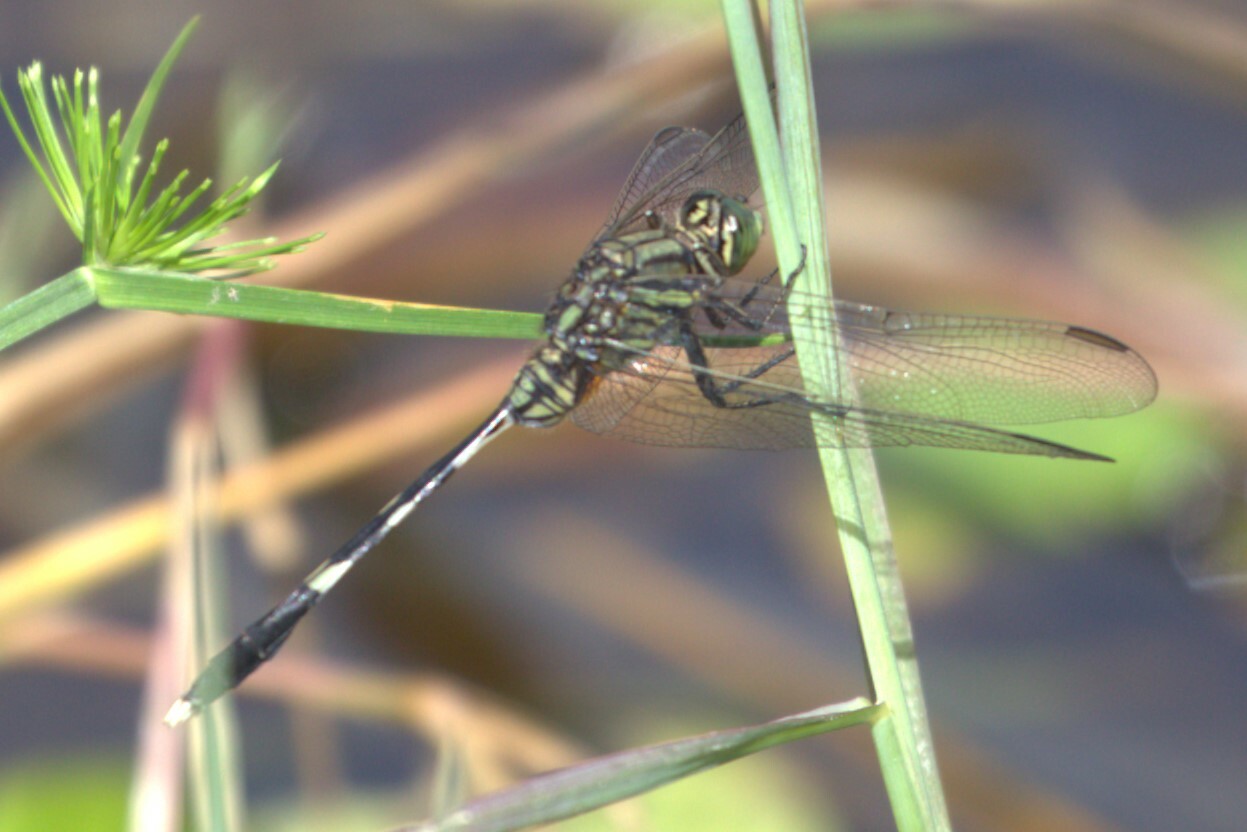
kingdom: Animalia
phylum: Arthropoda
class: Insecta
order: Odonata
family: Libellulidae
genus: Orthetrum
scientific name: Orthetrum sabina
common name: Slender skimmer
